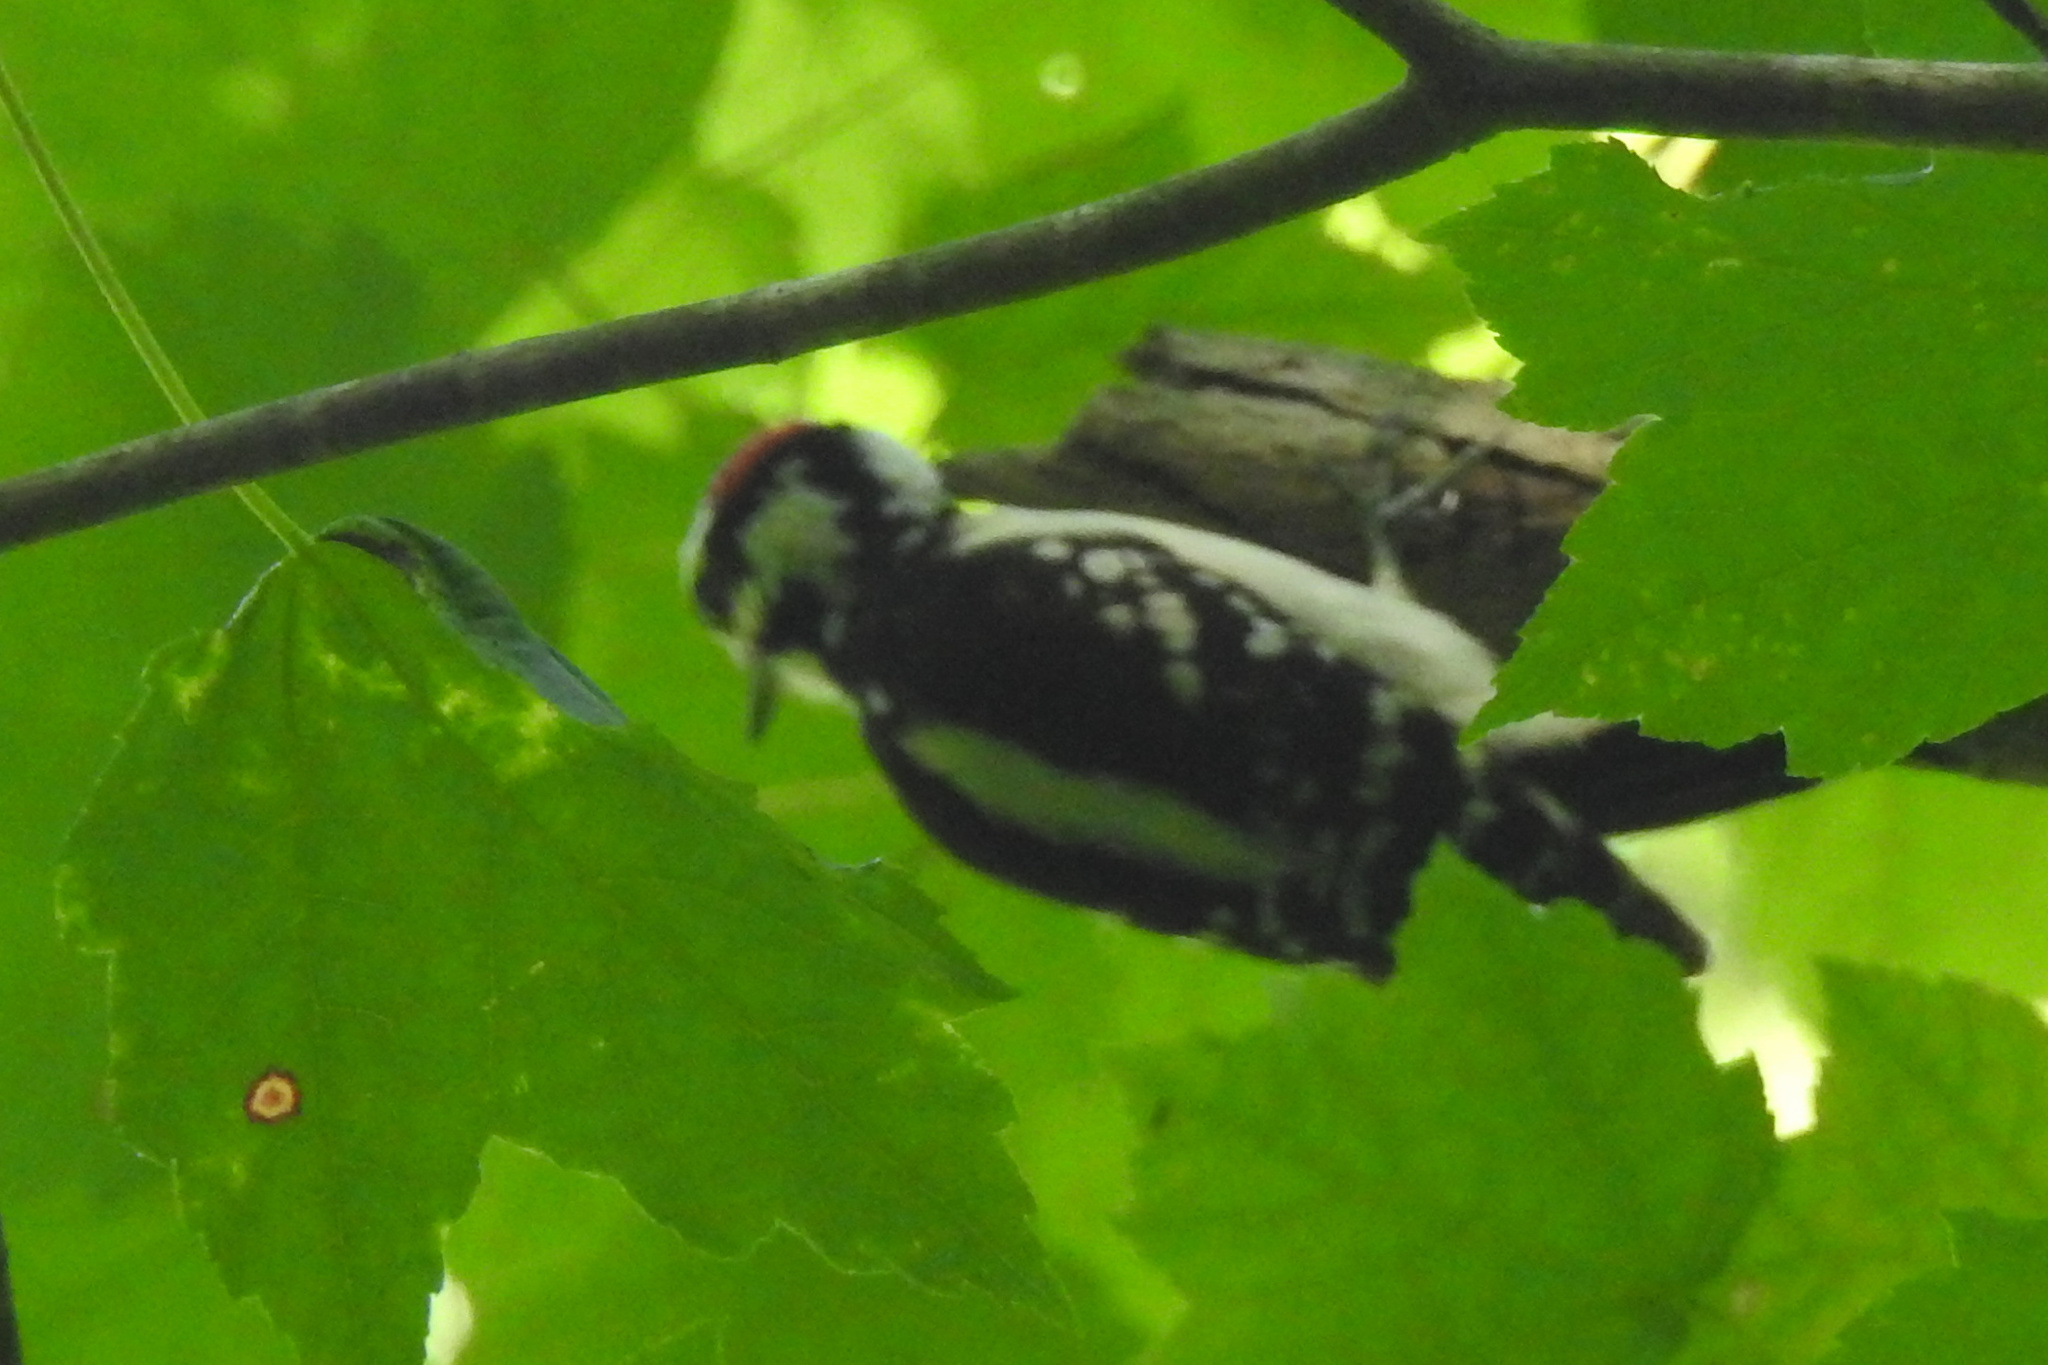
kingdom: Animalia
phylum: Chordata
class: Aves
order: Piciformes
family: Picidae
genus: Dryobates
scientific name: Dryobates pubescens
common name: Downy woodpecker
